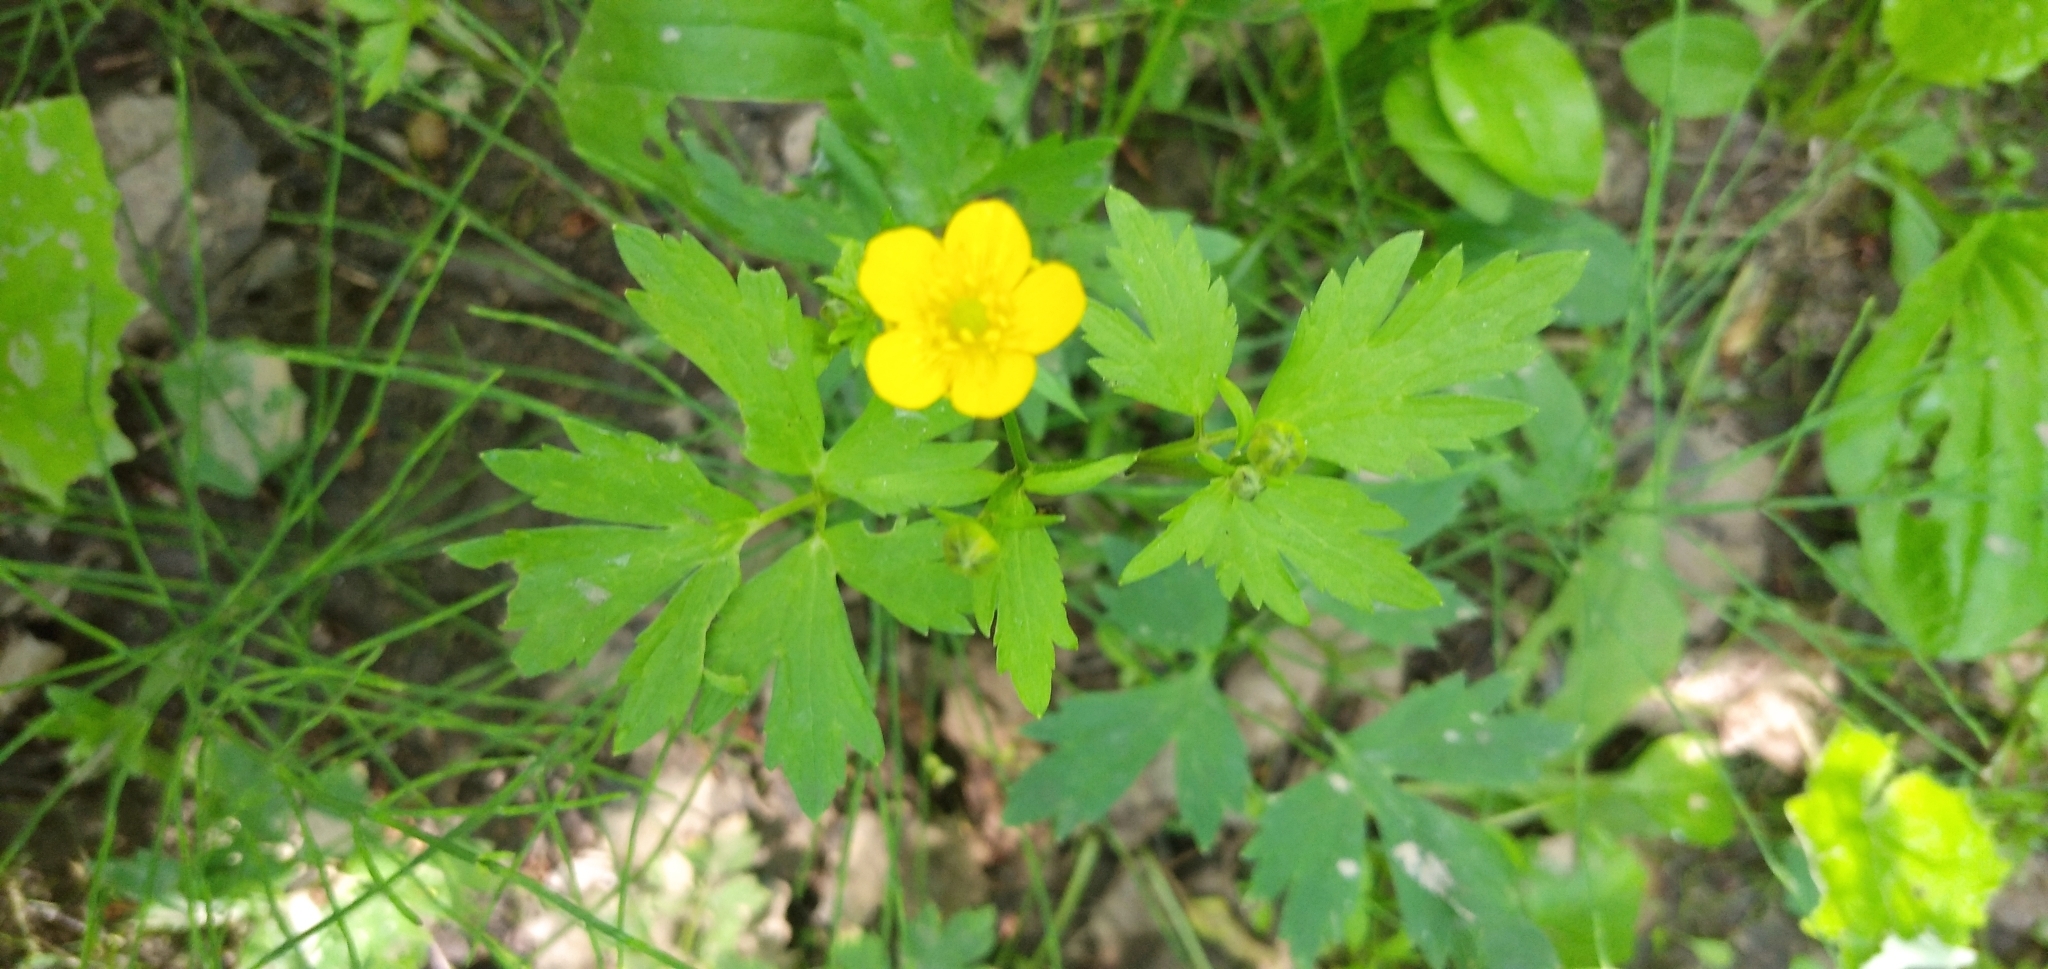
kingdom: Plantae
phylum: Tracheophyta
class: Magnoliopsida
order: Ranunculales
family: Ranunculaceae
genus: Ranunculus
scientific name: Ranunculus repens
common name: Creeping buttercup
